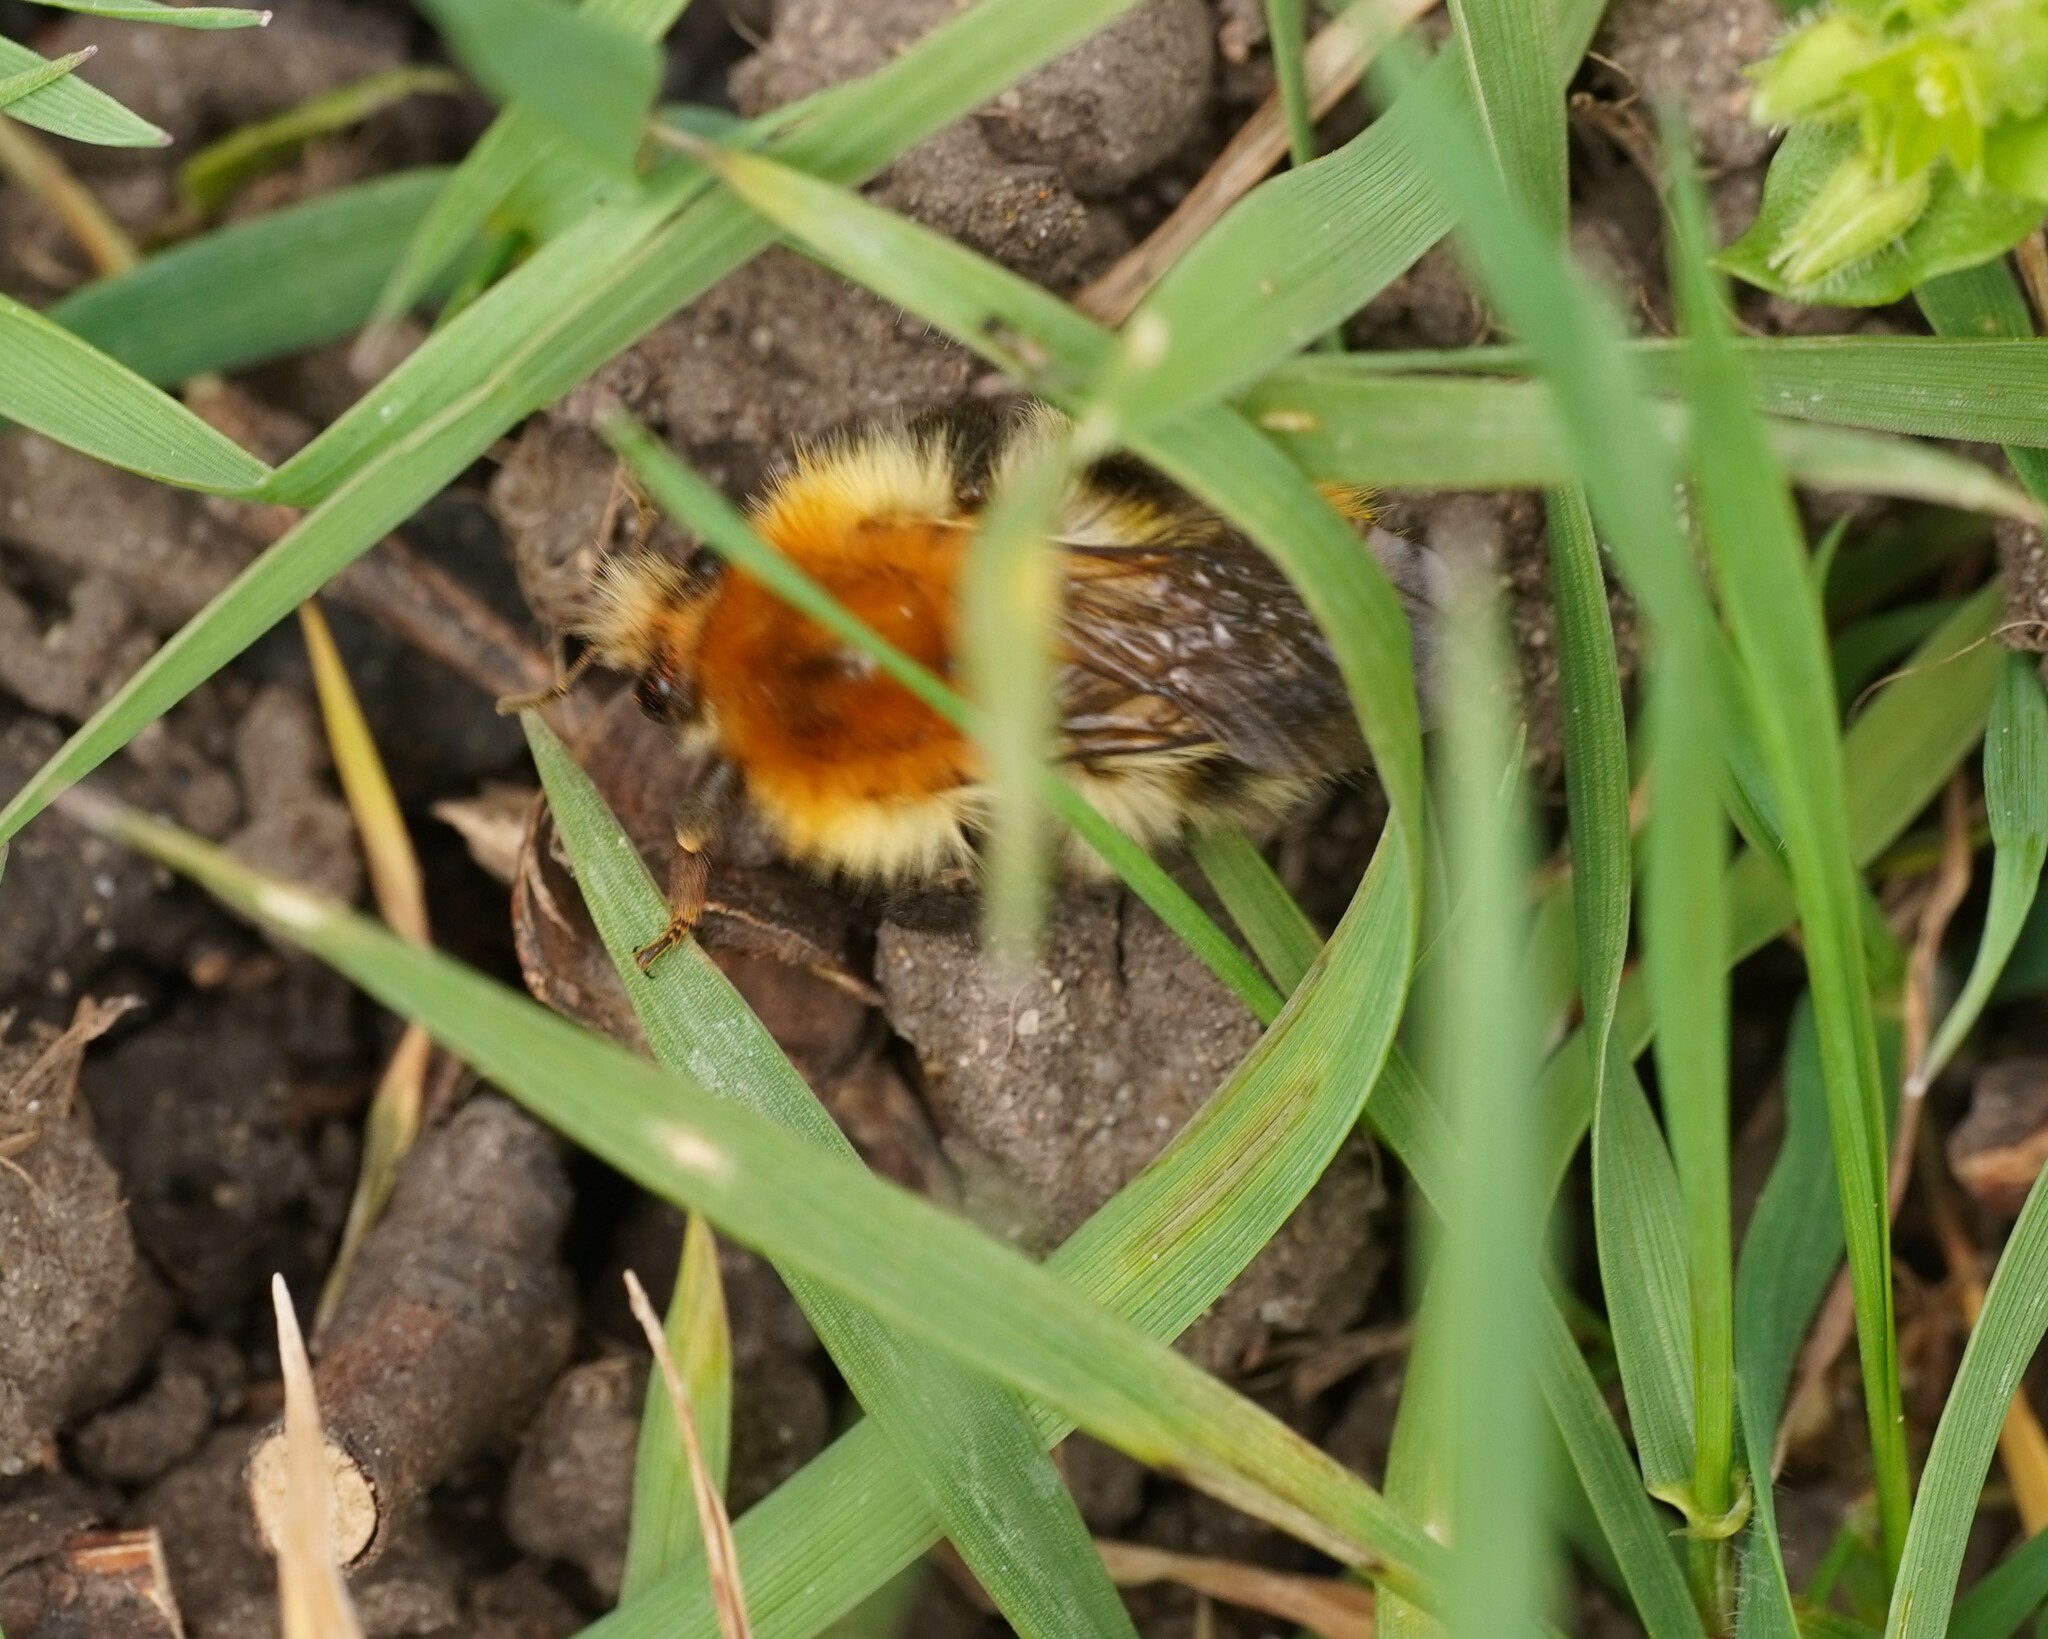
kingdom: Animalia
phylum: Arthropoda
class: Insecta
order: Hymenoptera
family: Apidae
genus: Bombus
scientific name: Bombus pascuorum
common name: Common carder bee
